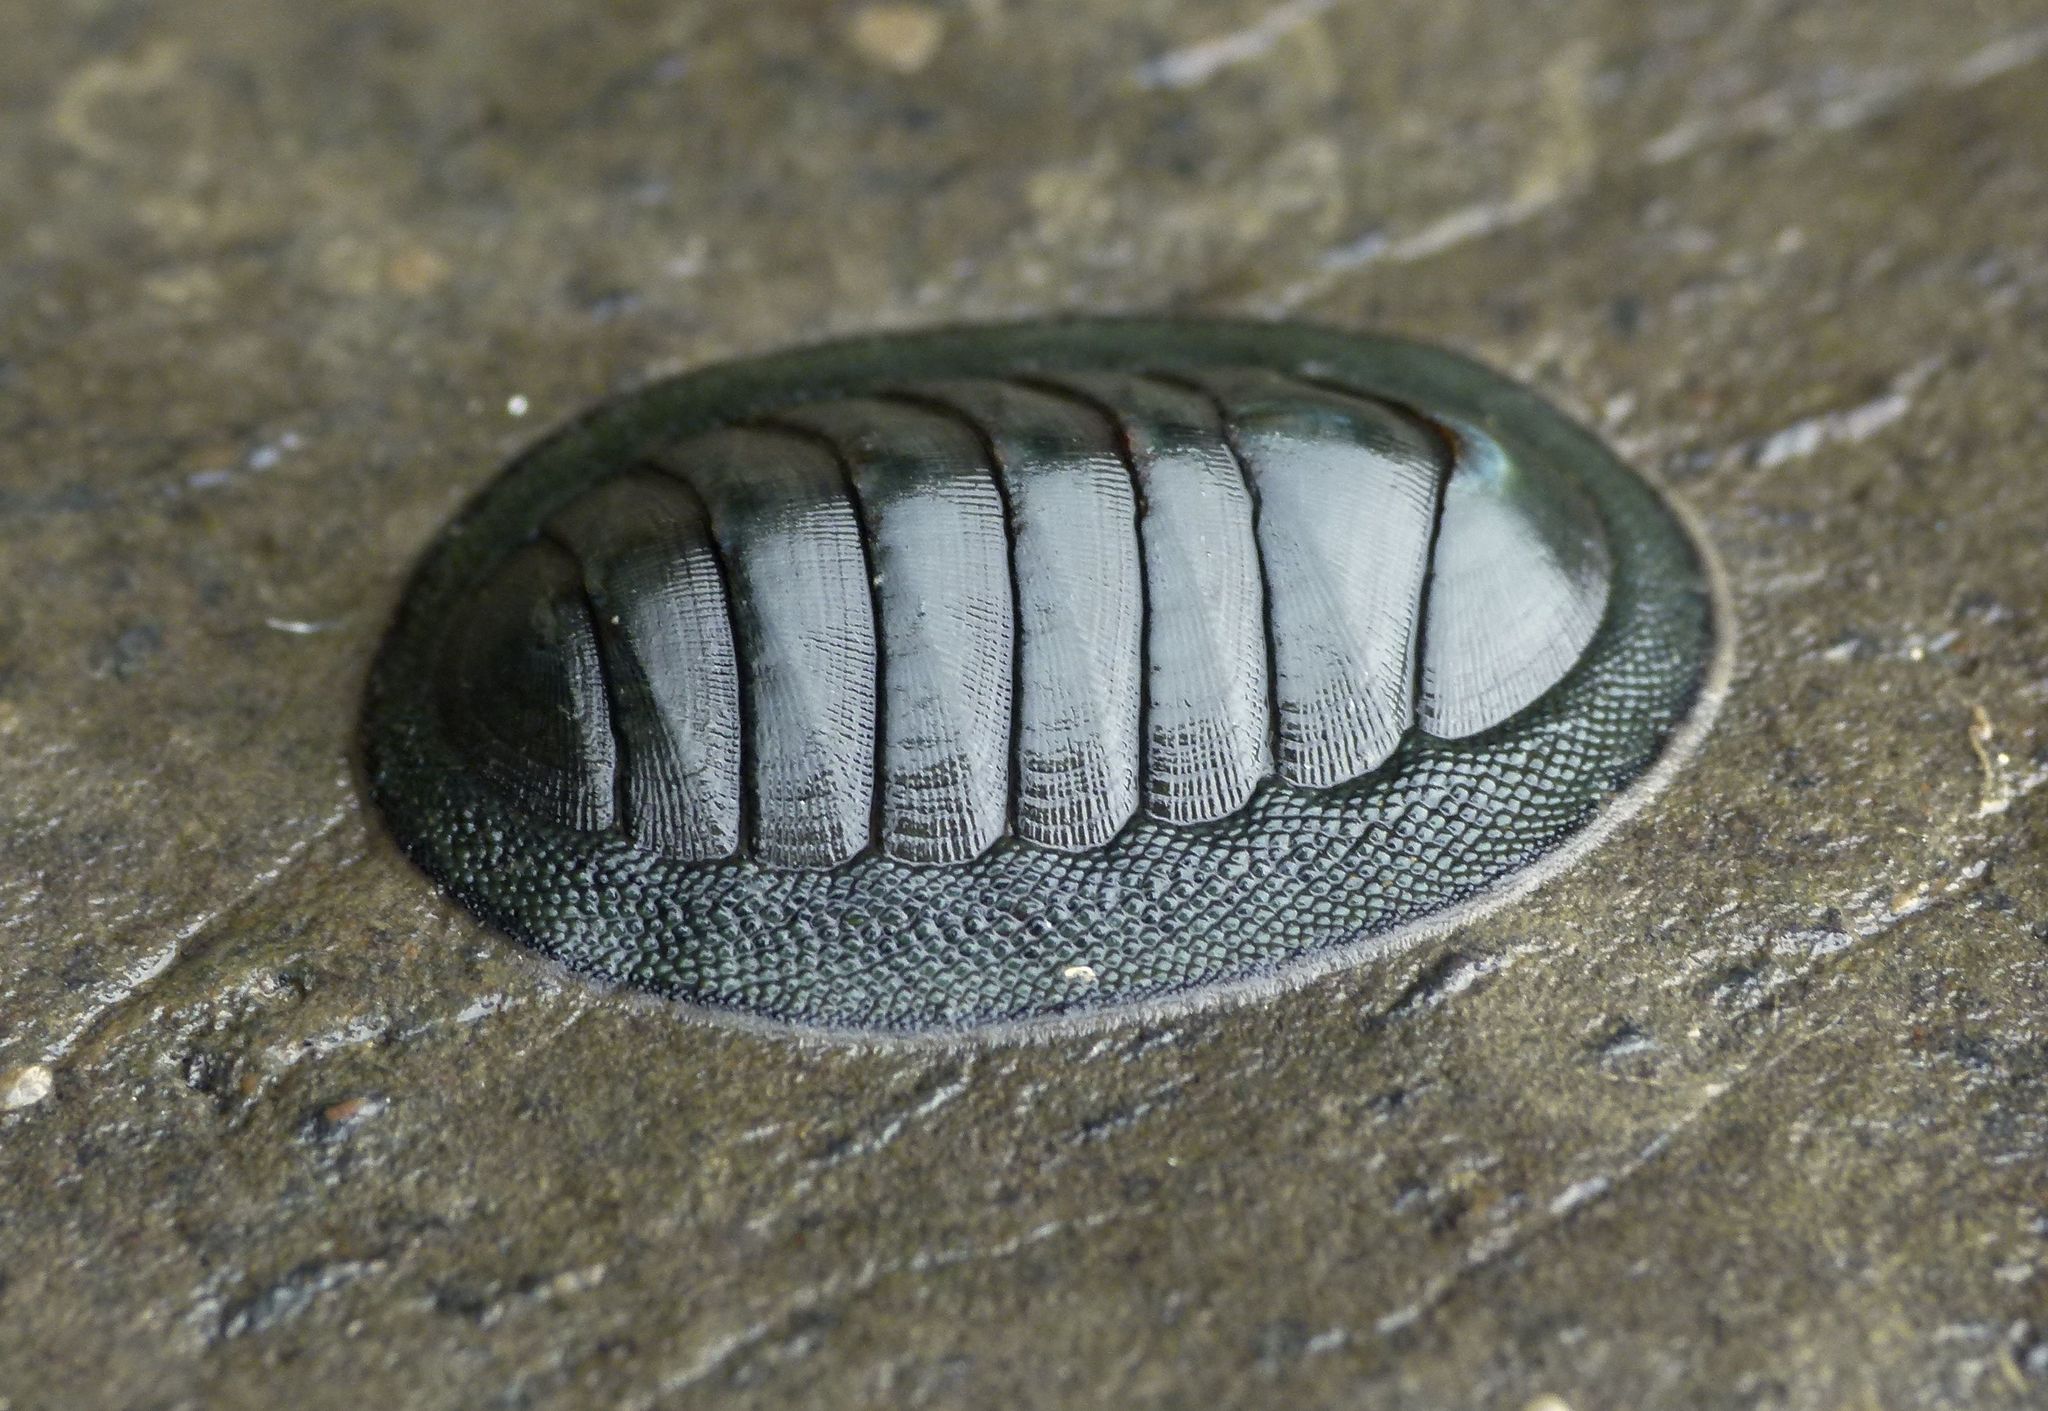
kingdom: Animalia
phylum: Mollusca
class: Polyplacophora
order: Chitonida
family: Chitonidae
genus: Chiton
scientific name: Chiton glaucus
